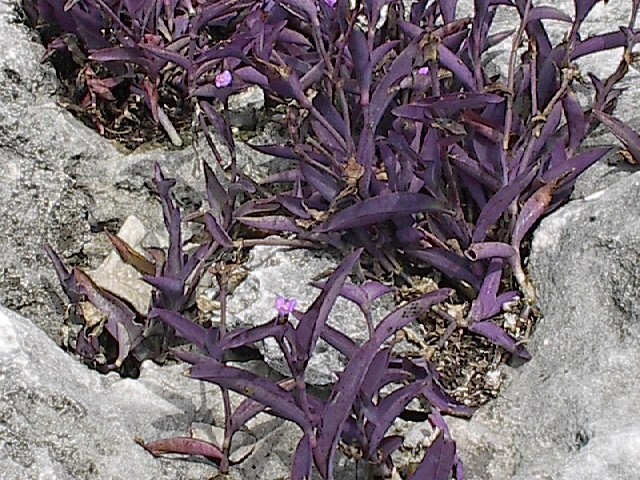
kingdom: Plantae
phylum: Tracheophyta
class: Liliopsida
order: Commelinales
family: Commelinaceae
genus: Tradescantia
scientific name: Tradescantia pallida
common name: Purpleheart
